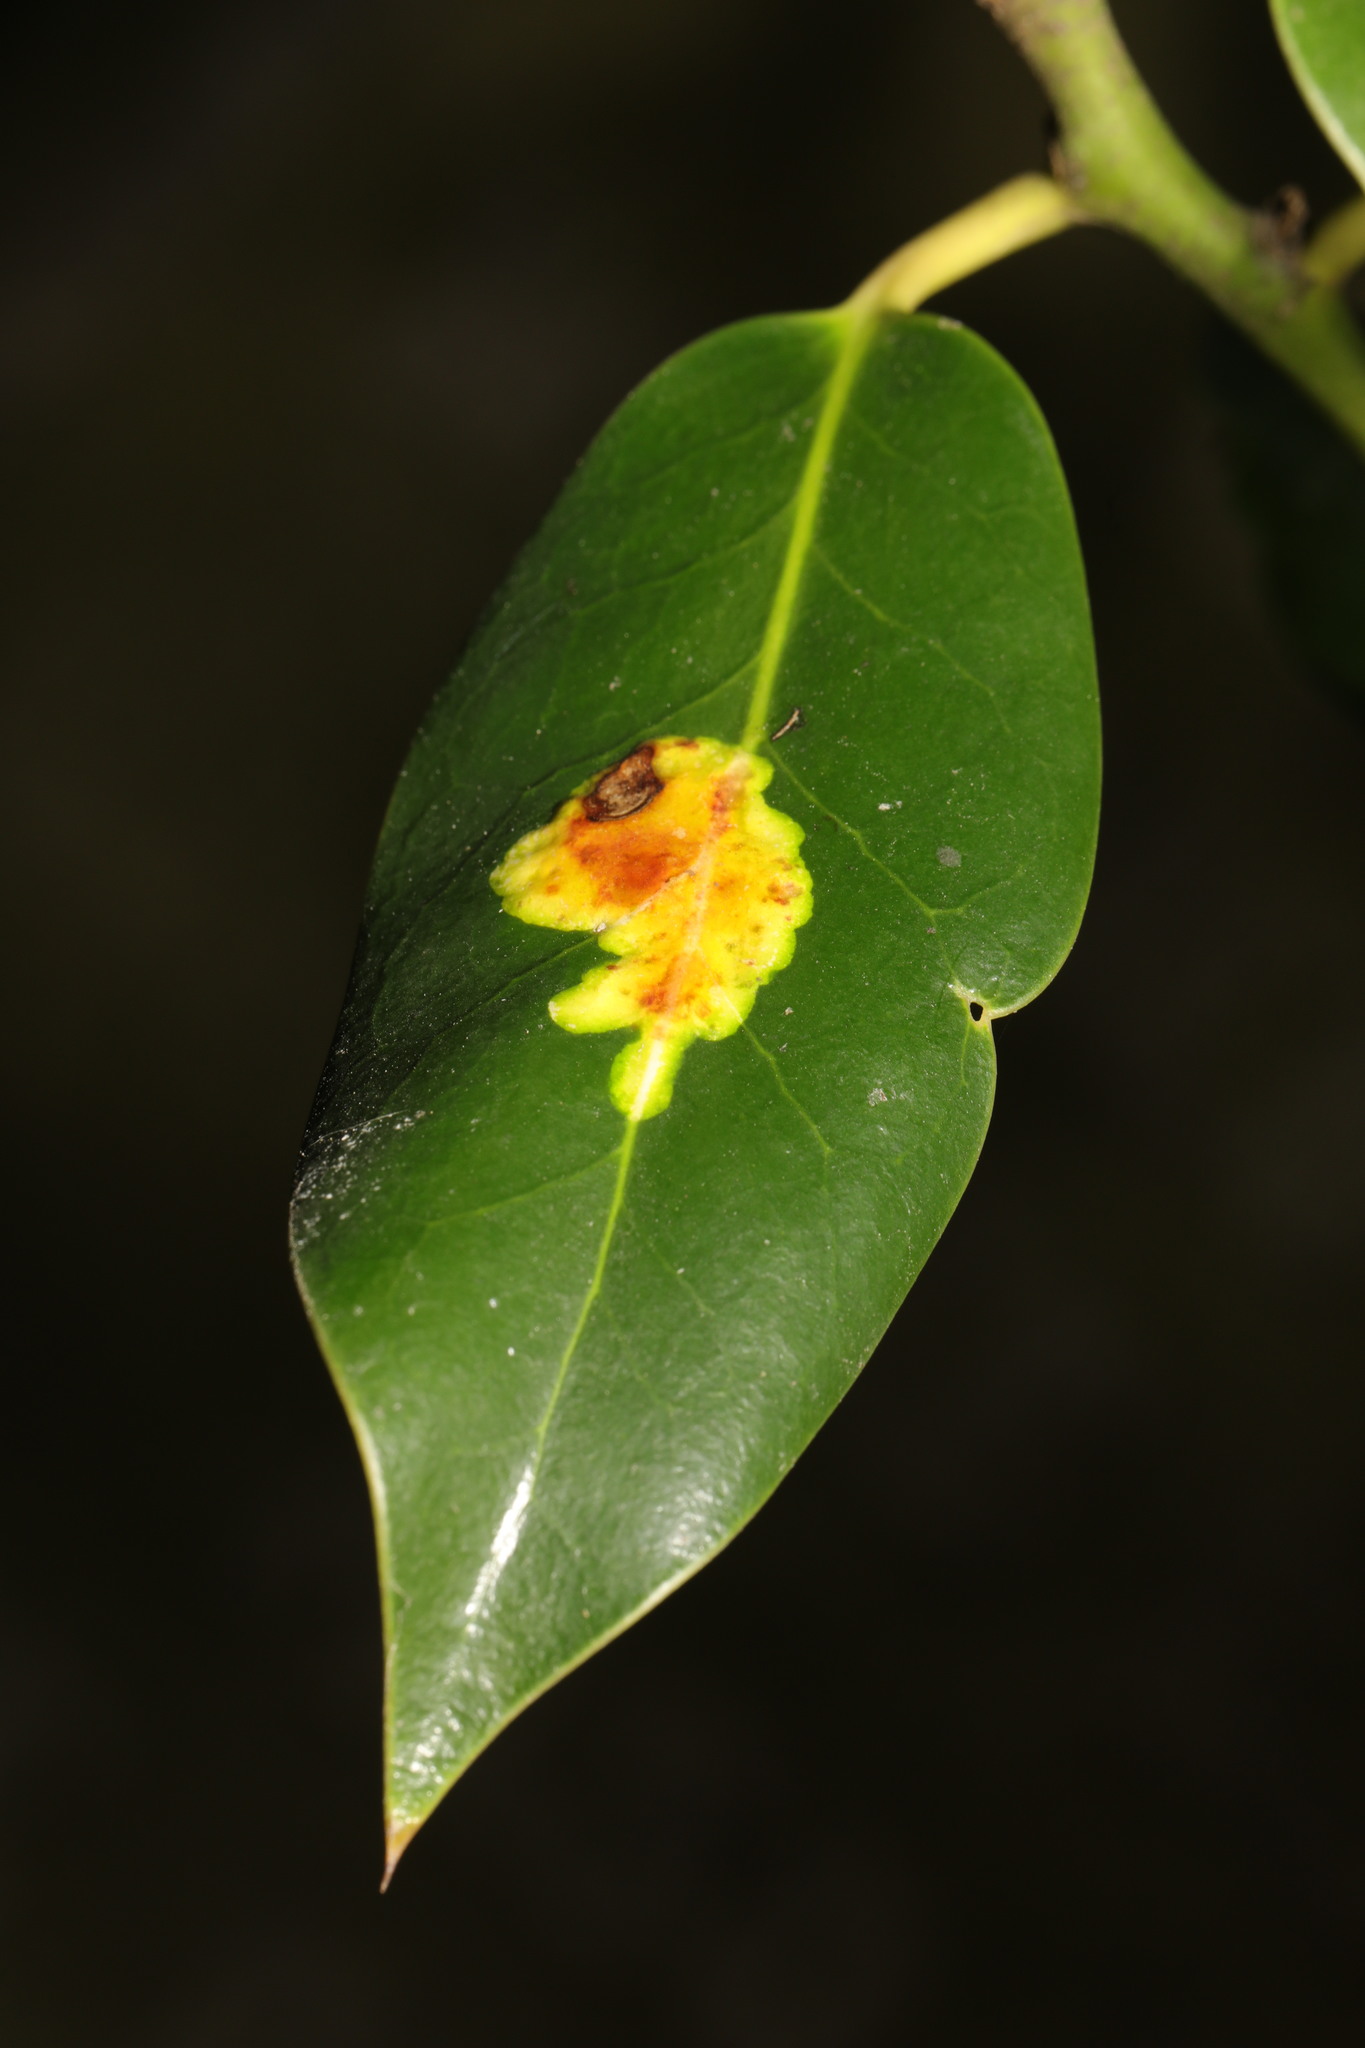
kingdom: Animalia
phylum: Arthropoda
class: Insecta
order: Diptera
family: Agromyzidae
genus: Phytomyza
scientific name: Phytomyza ilicis
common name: Holly leafminer
